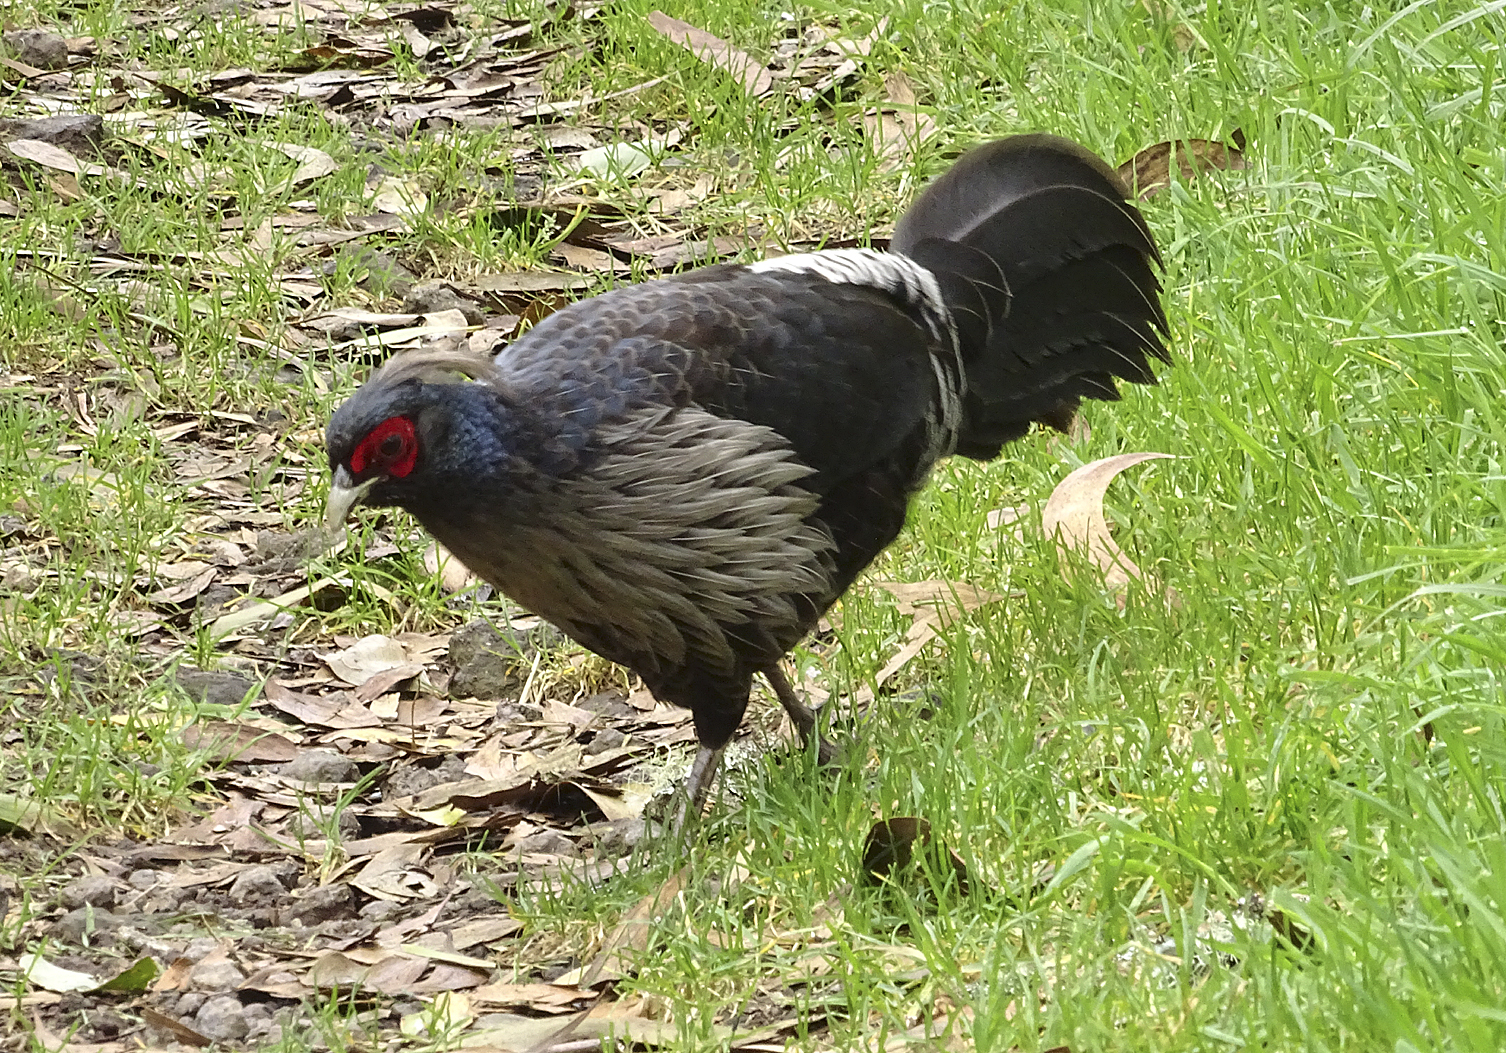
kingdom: Animalia
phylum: Chordata
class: Aves
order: Galliformes
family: Phasianidae
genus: Lophura
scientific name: Lophura leucomelanos
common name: Kalij pheasant
